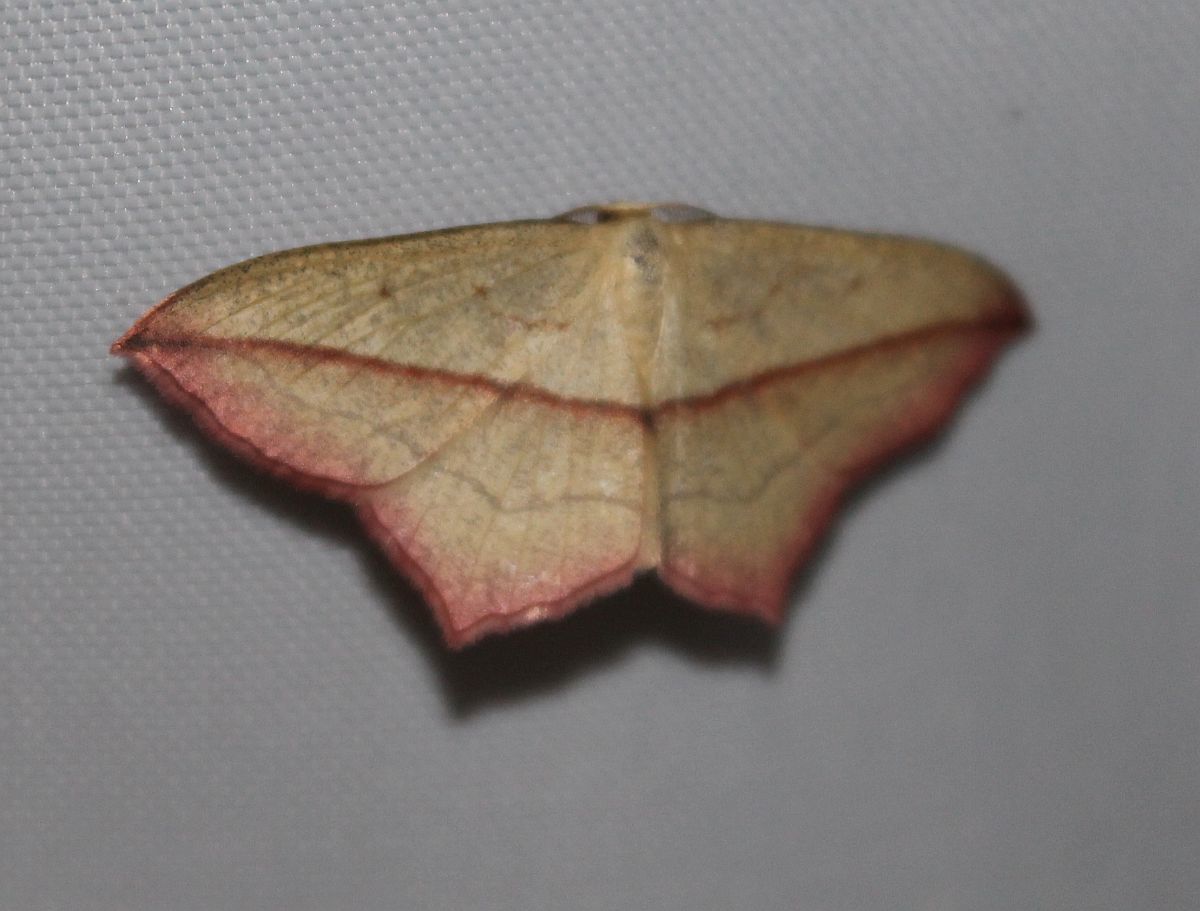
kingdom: Animalia
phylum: Arthropoda
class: Insecta
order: Lepidoptera
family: Geometridae
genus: Timandra
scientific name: Timandra comae
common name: Blood-vein
